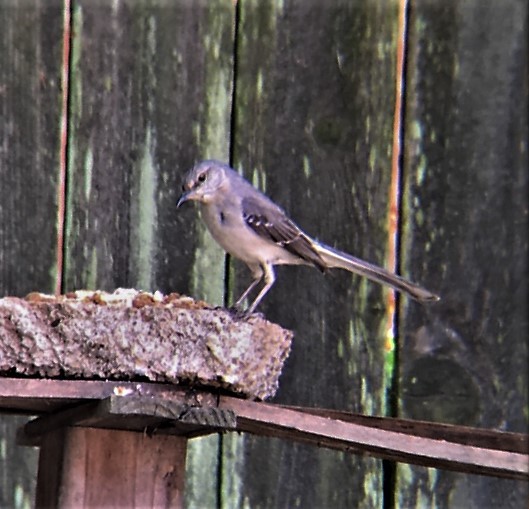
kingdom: Animalia
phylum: Chordata
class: Aves
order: Passeriformes
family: Mimidae
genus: Mimus
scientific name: Mimus polyglottos
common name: Northern mockingbird
